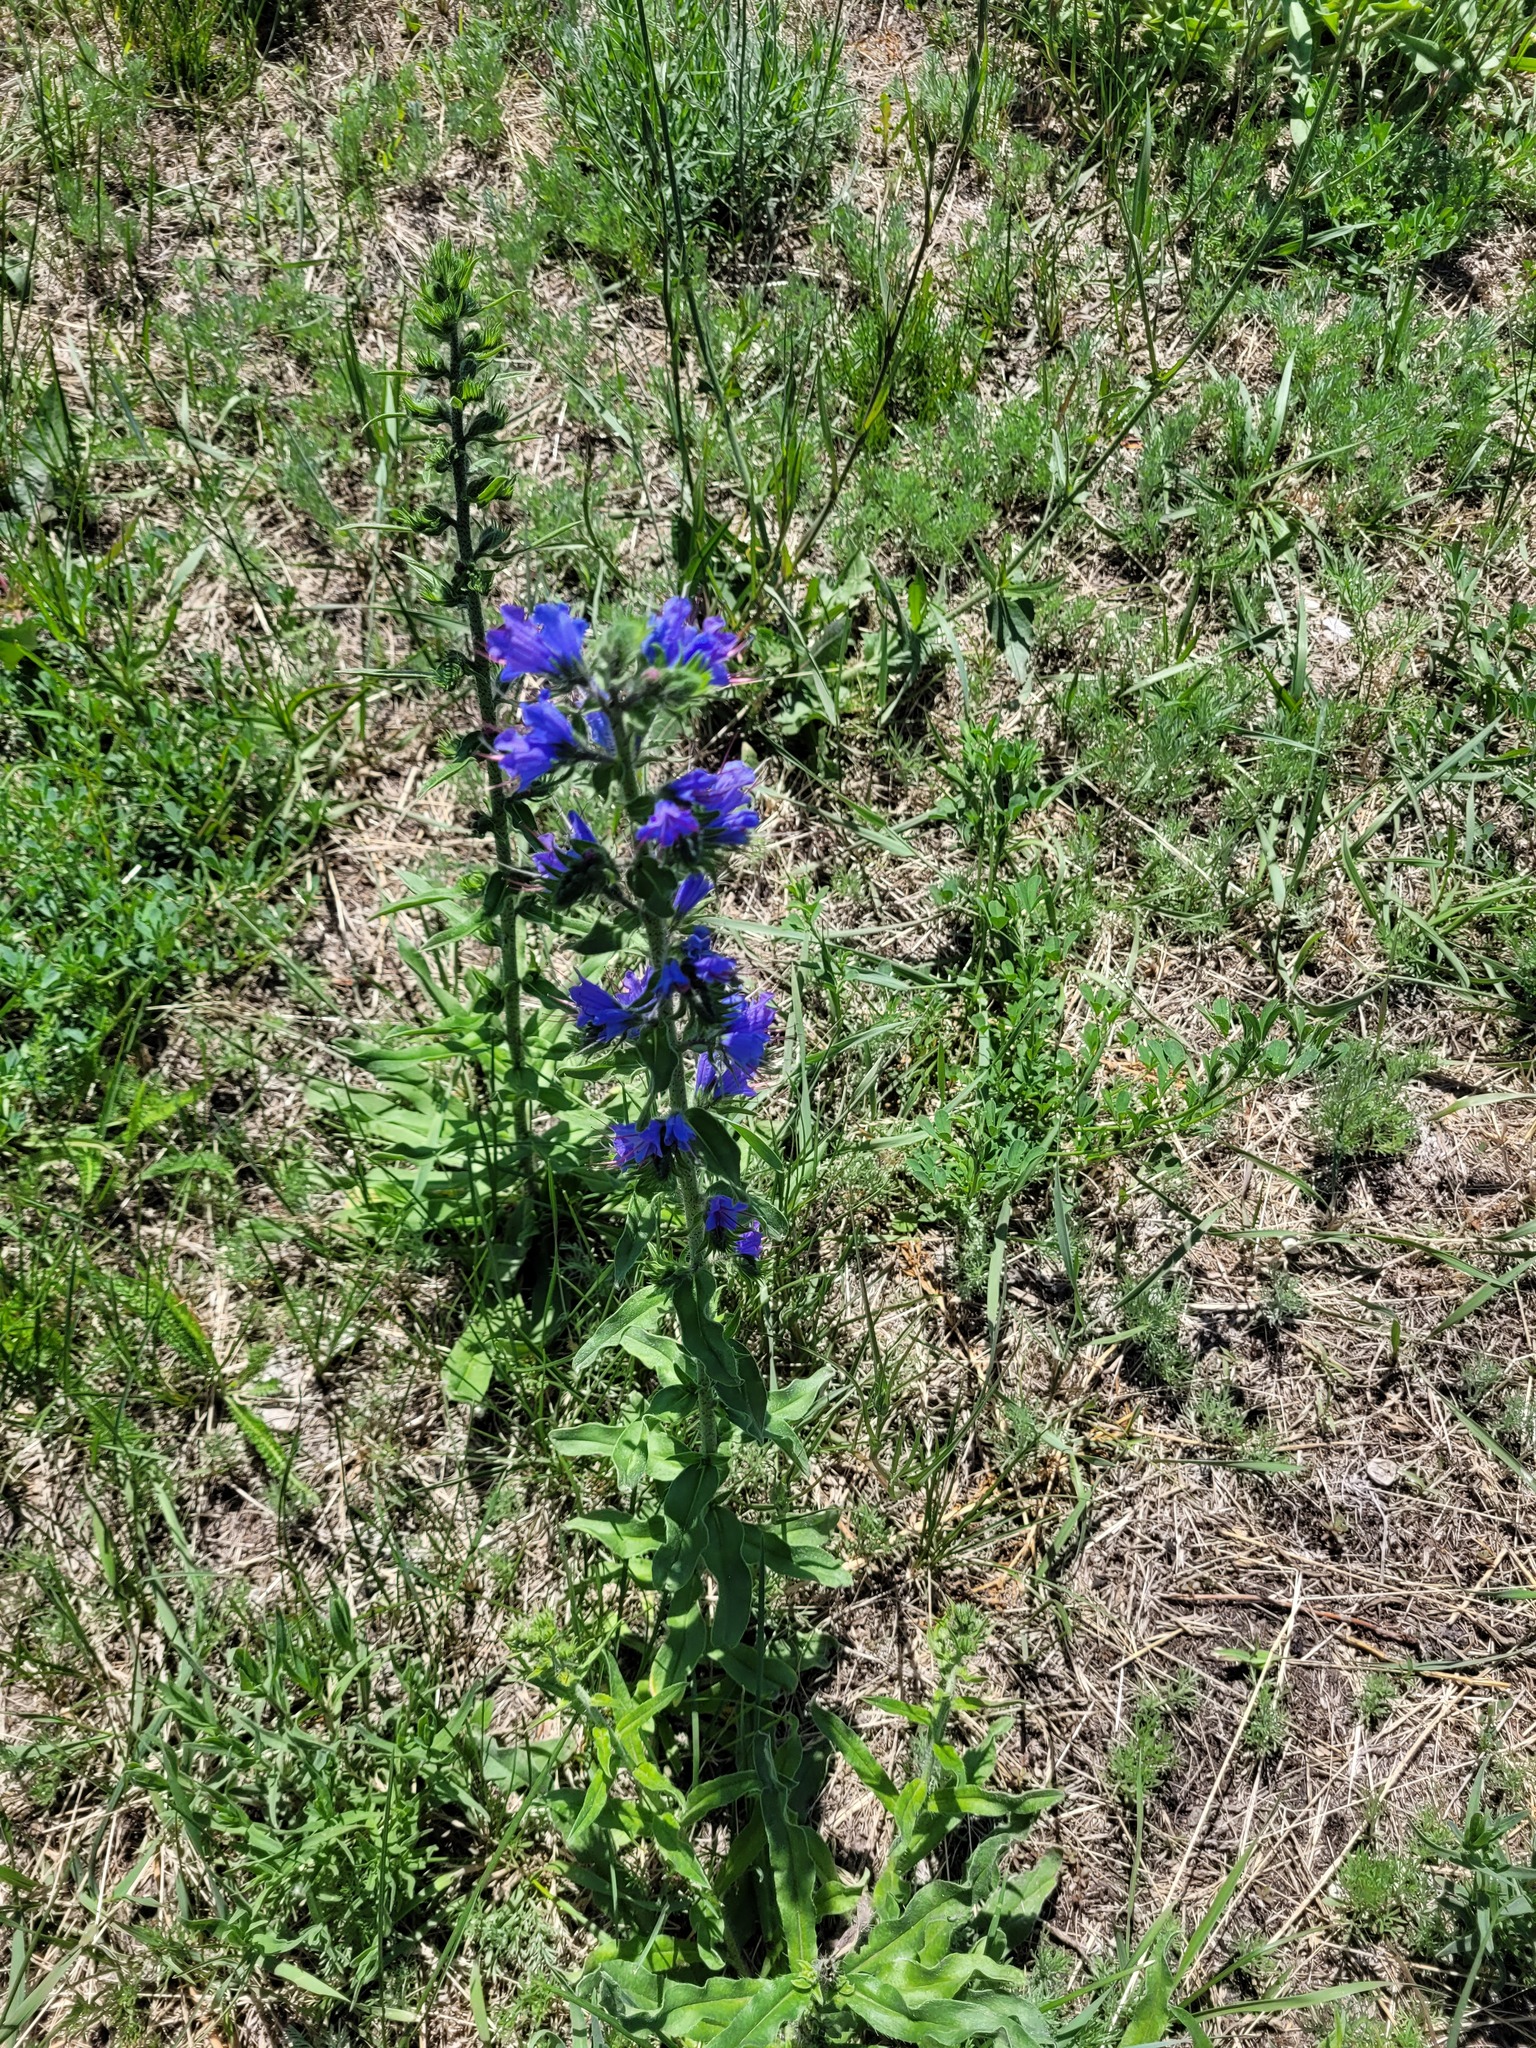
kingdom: Plantae
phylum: Tracheophyta
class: Magnoliopsida
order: Boraginales
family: Boraginaceae
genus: Echium
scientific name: Echium vulgare
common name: Common viper's bugloss
